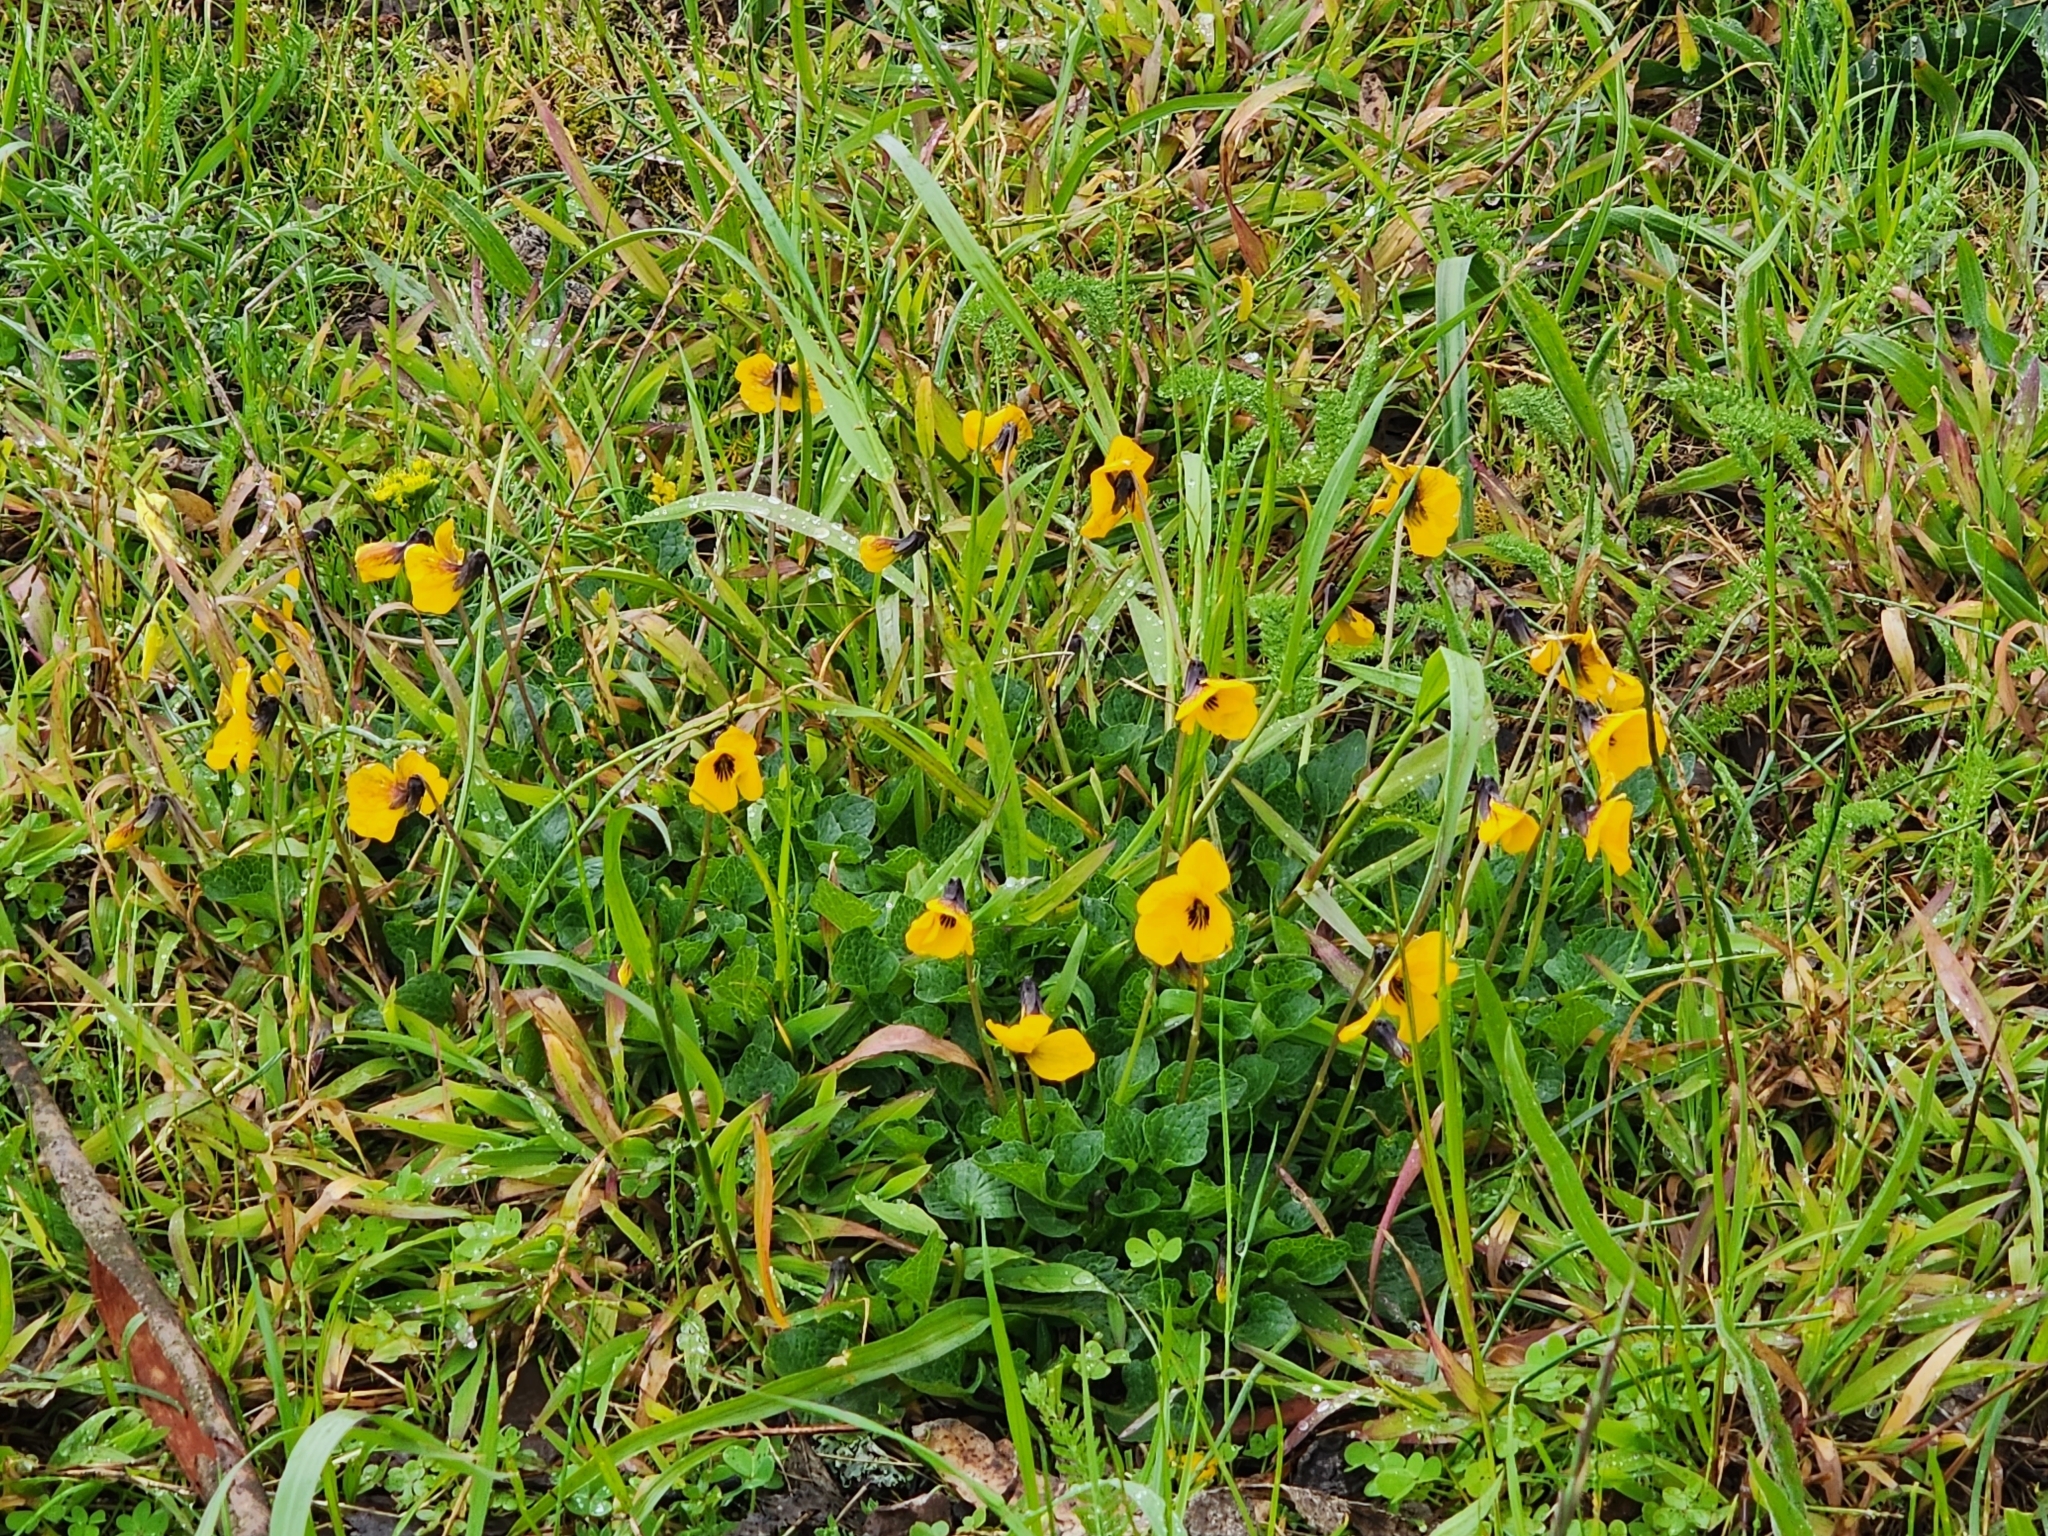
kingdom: Plantae
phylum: Tracheophyta
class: Magnoliopsida
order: Malpighiales
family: Violaceae
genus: Viola
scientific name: Viola pedunculata
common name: California golden violet
